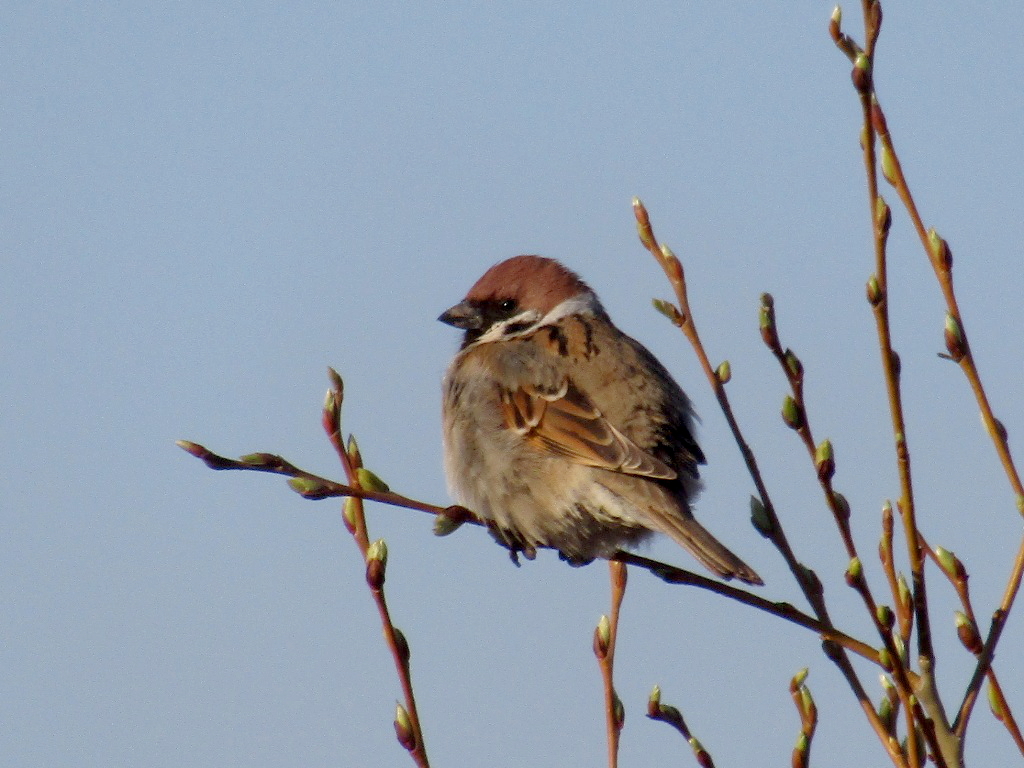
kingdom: Animalia
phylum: Chordata
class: Aves
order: Passeriformes
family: Passeridae
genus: Passer
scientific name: Passer montanus
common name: Eurasian tree sparrow
